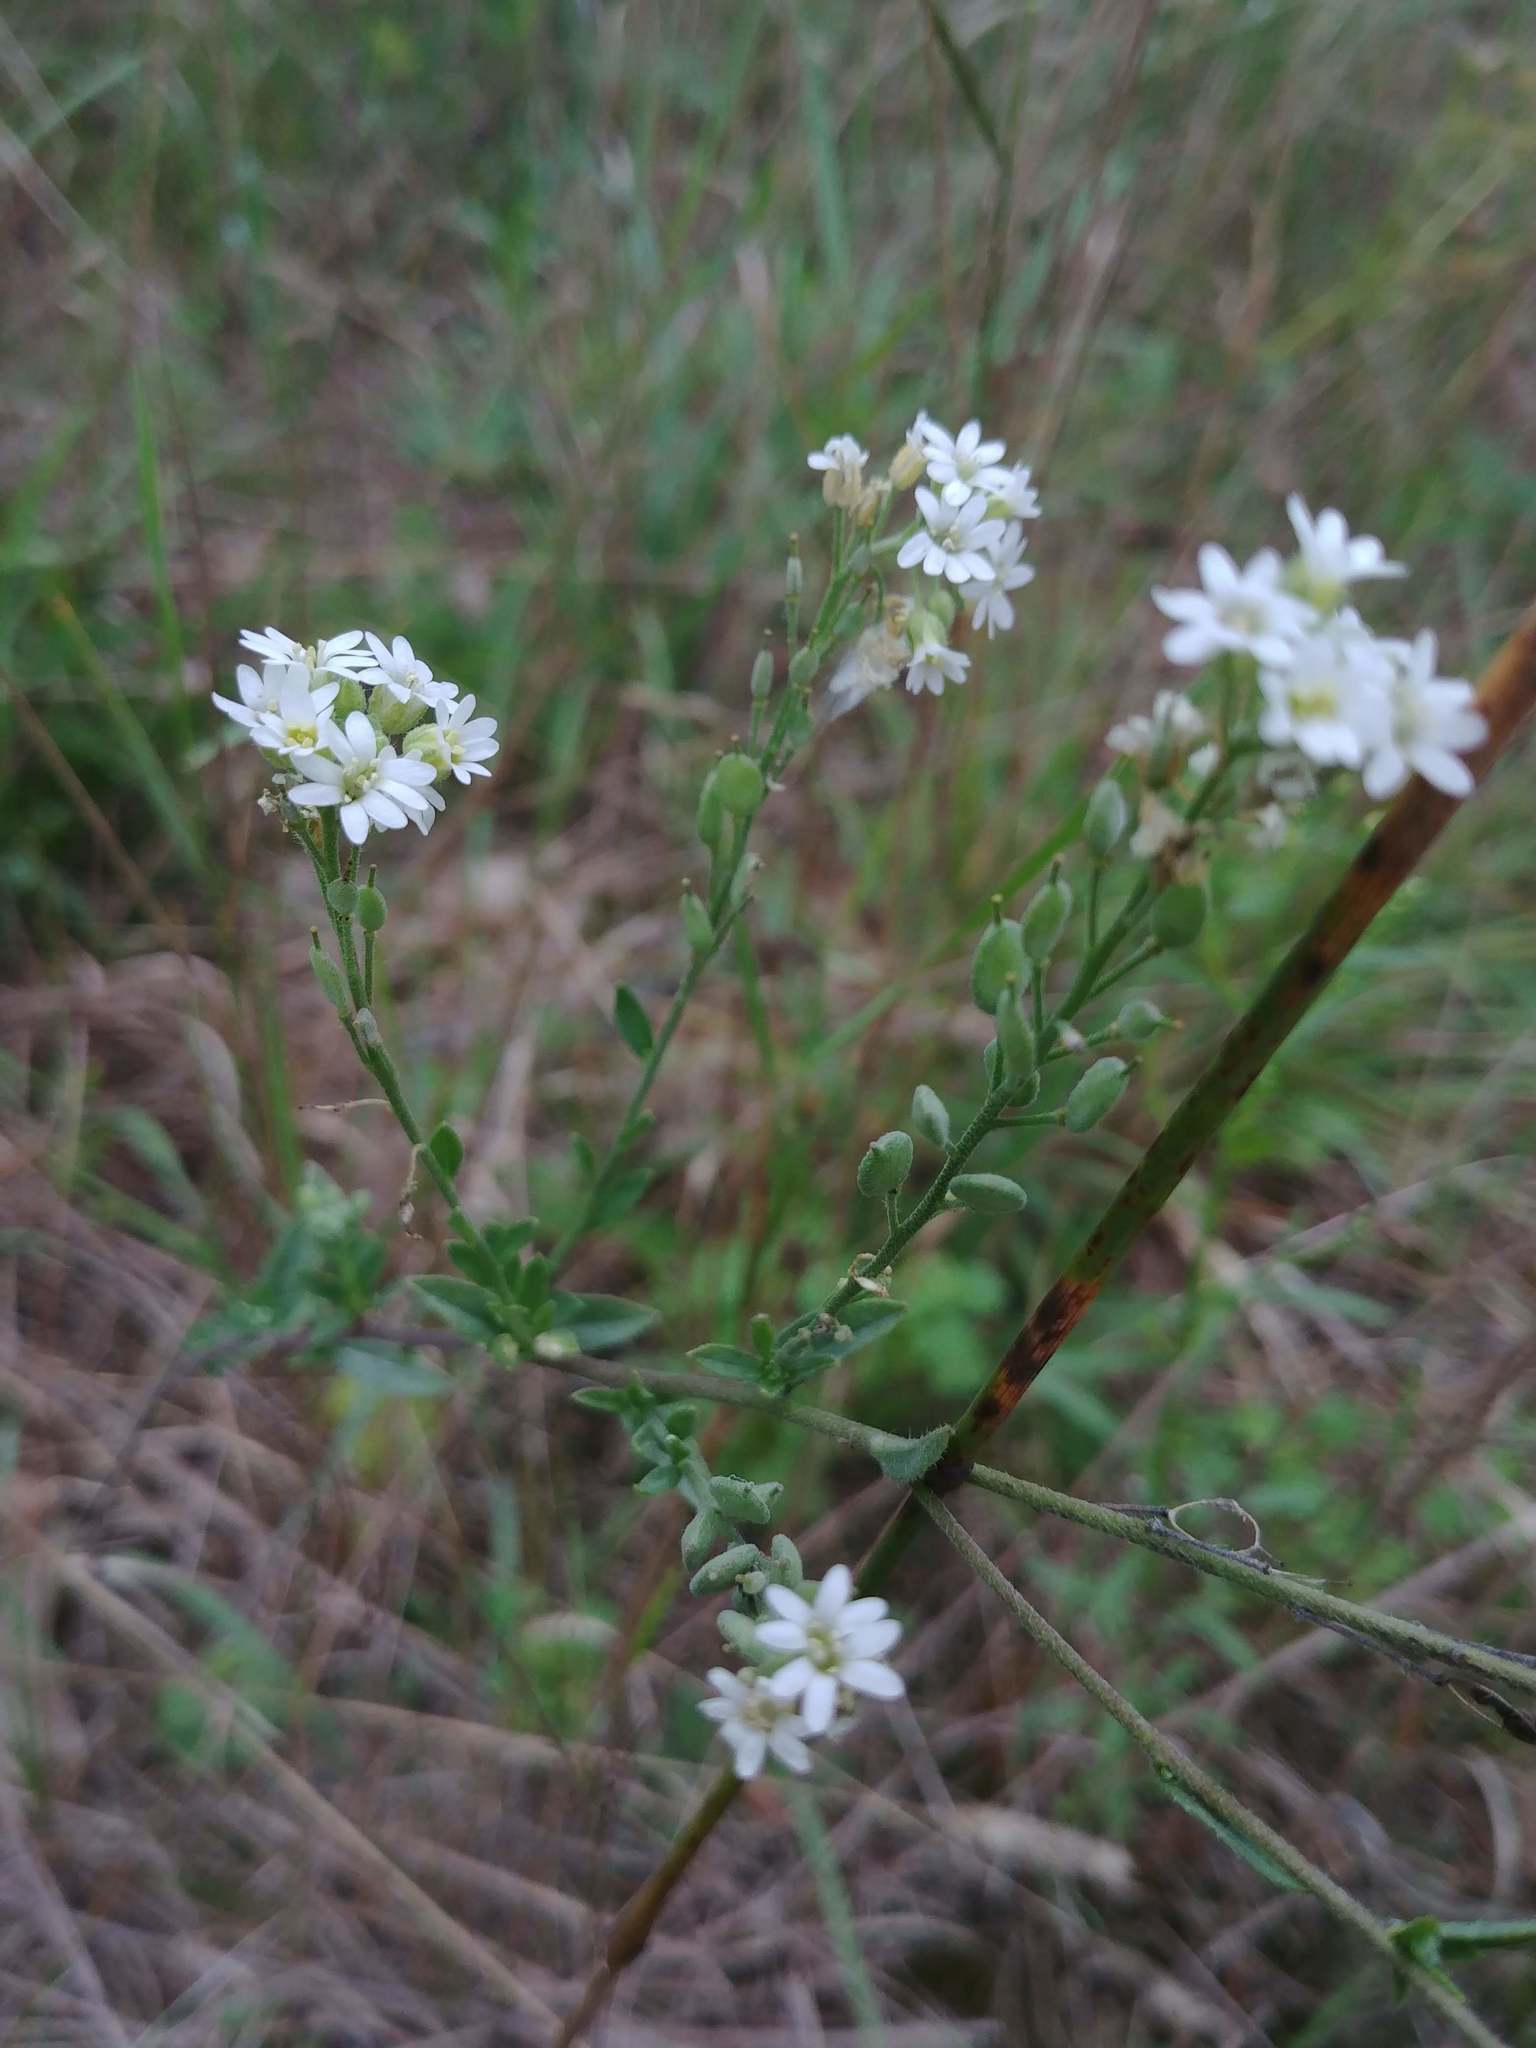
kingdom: Plantae
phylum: Tracheophyta
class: Magnoliopsida
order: Brassicales
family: Brassicaceae
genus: Berteroa
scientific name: Berteroa incana
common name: Hoary alison
